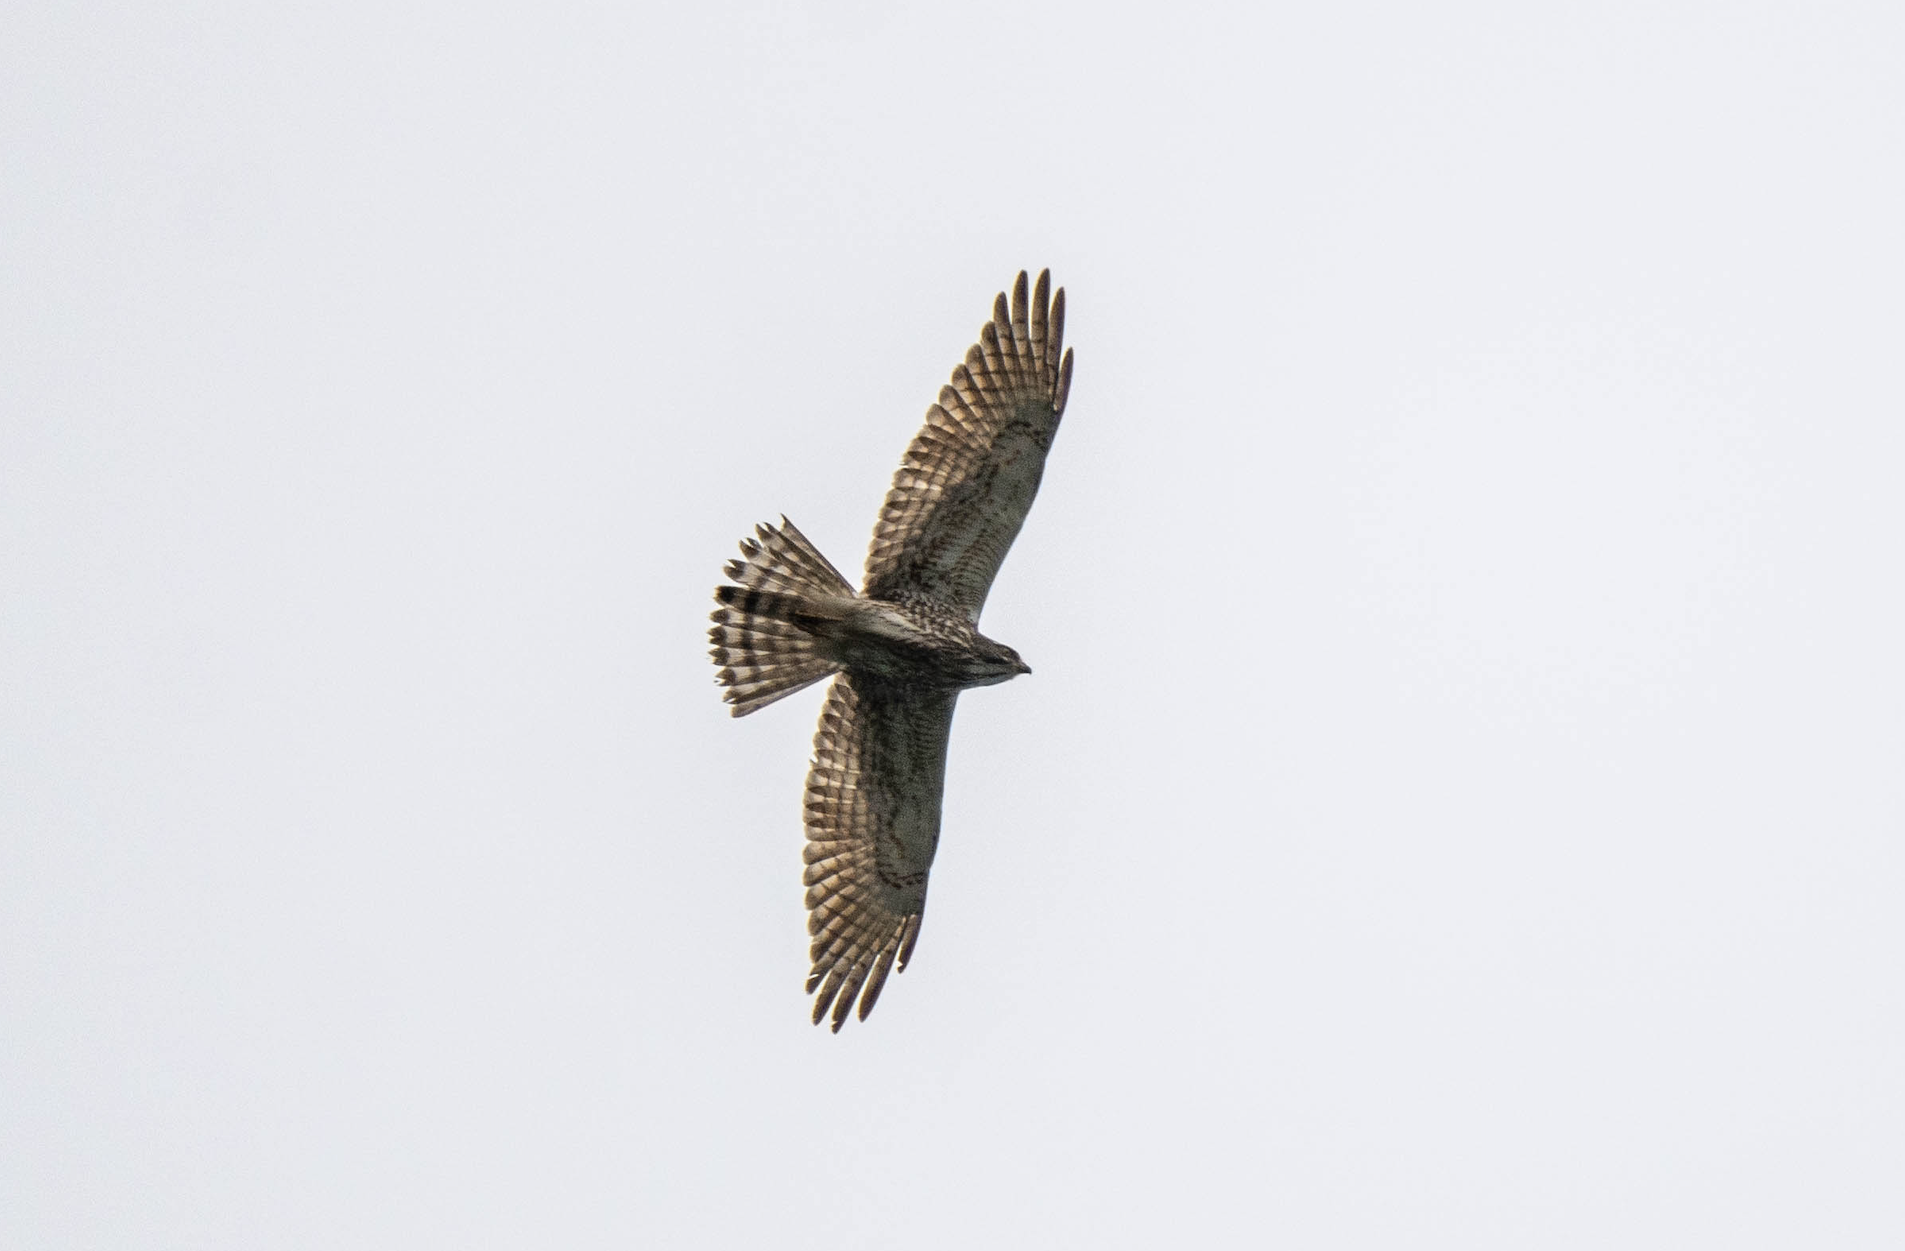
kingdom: Animalia
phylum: Chordata
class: Aves
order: Accipitriformes
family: Accipitridae
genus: Butastur
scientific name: Butastur indicus
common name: Grey-faced buzzard
